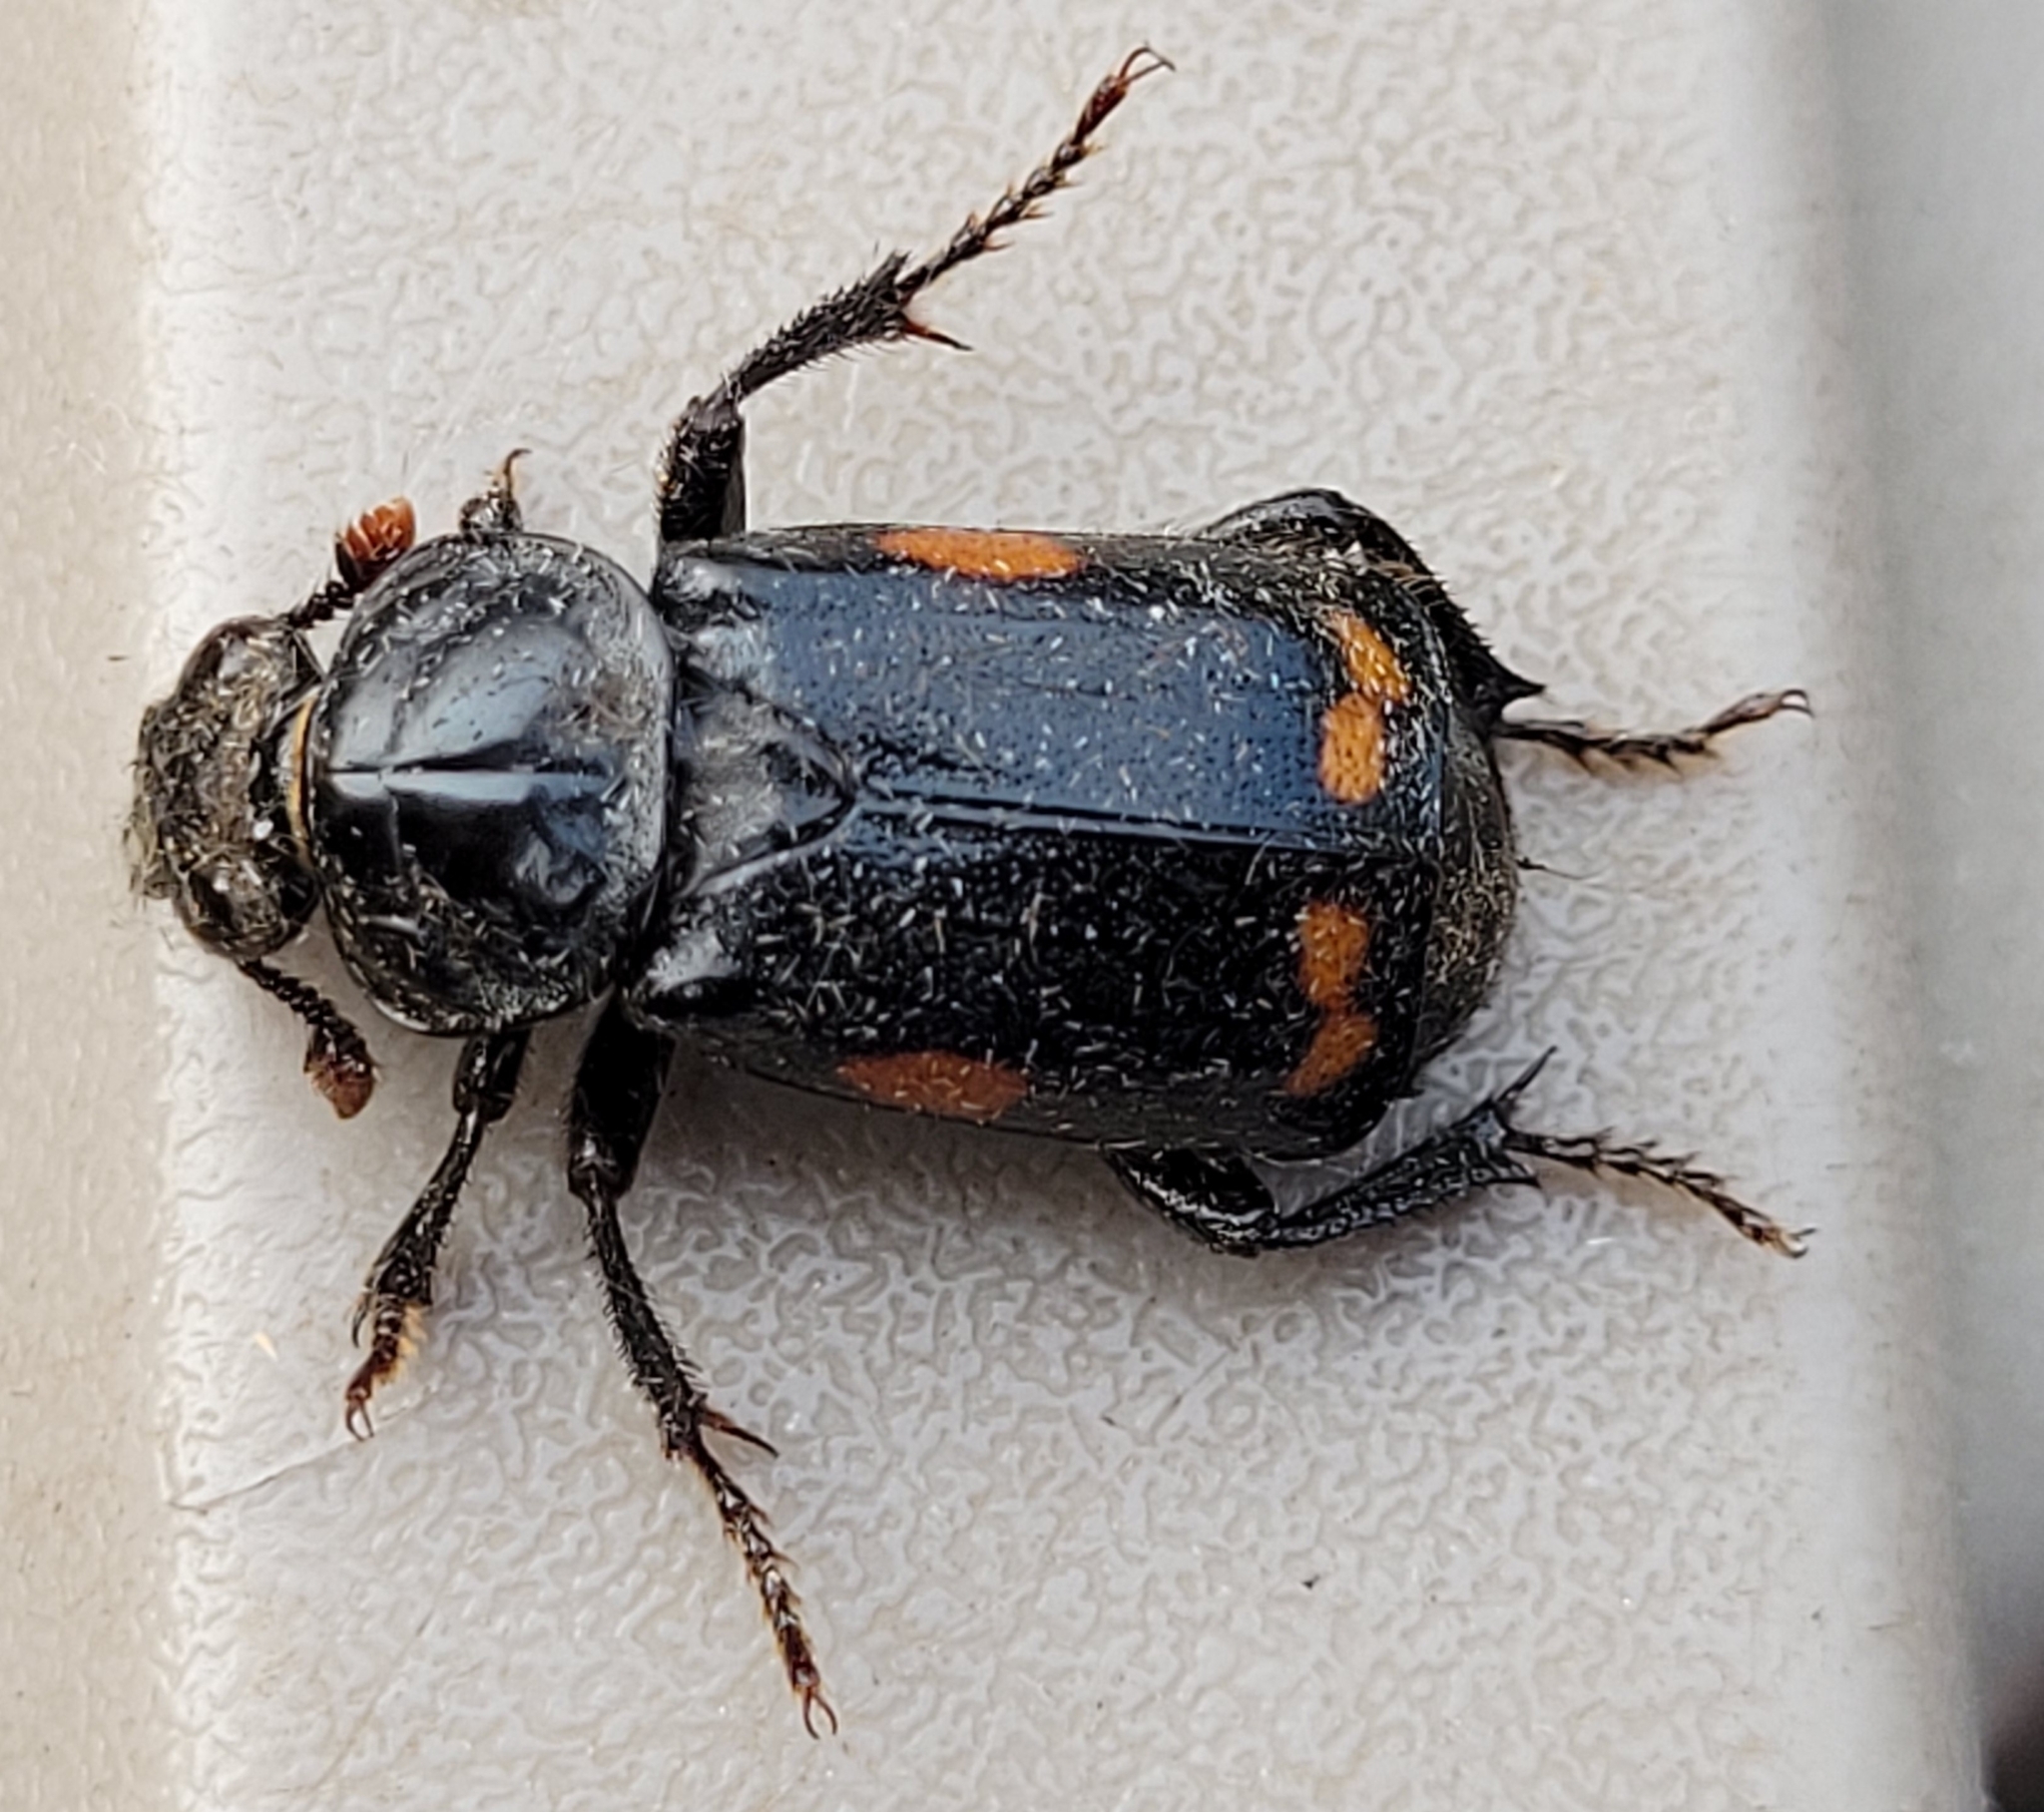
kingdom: Animalia
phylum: Arthropoda
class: Insecta
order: Coleoptera
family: Staphylinidae
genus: Nicrophorus
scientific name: Nicrophorus pustulatus
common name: Pustulated carrion beetle
